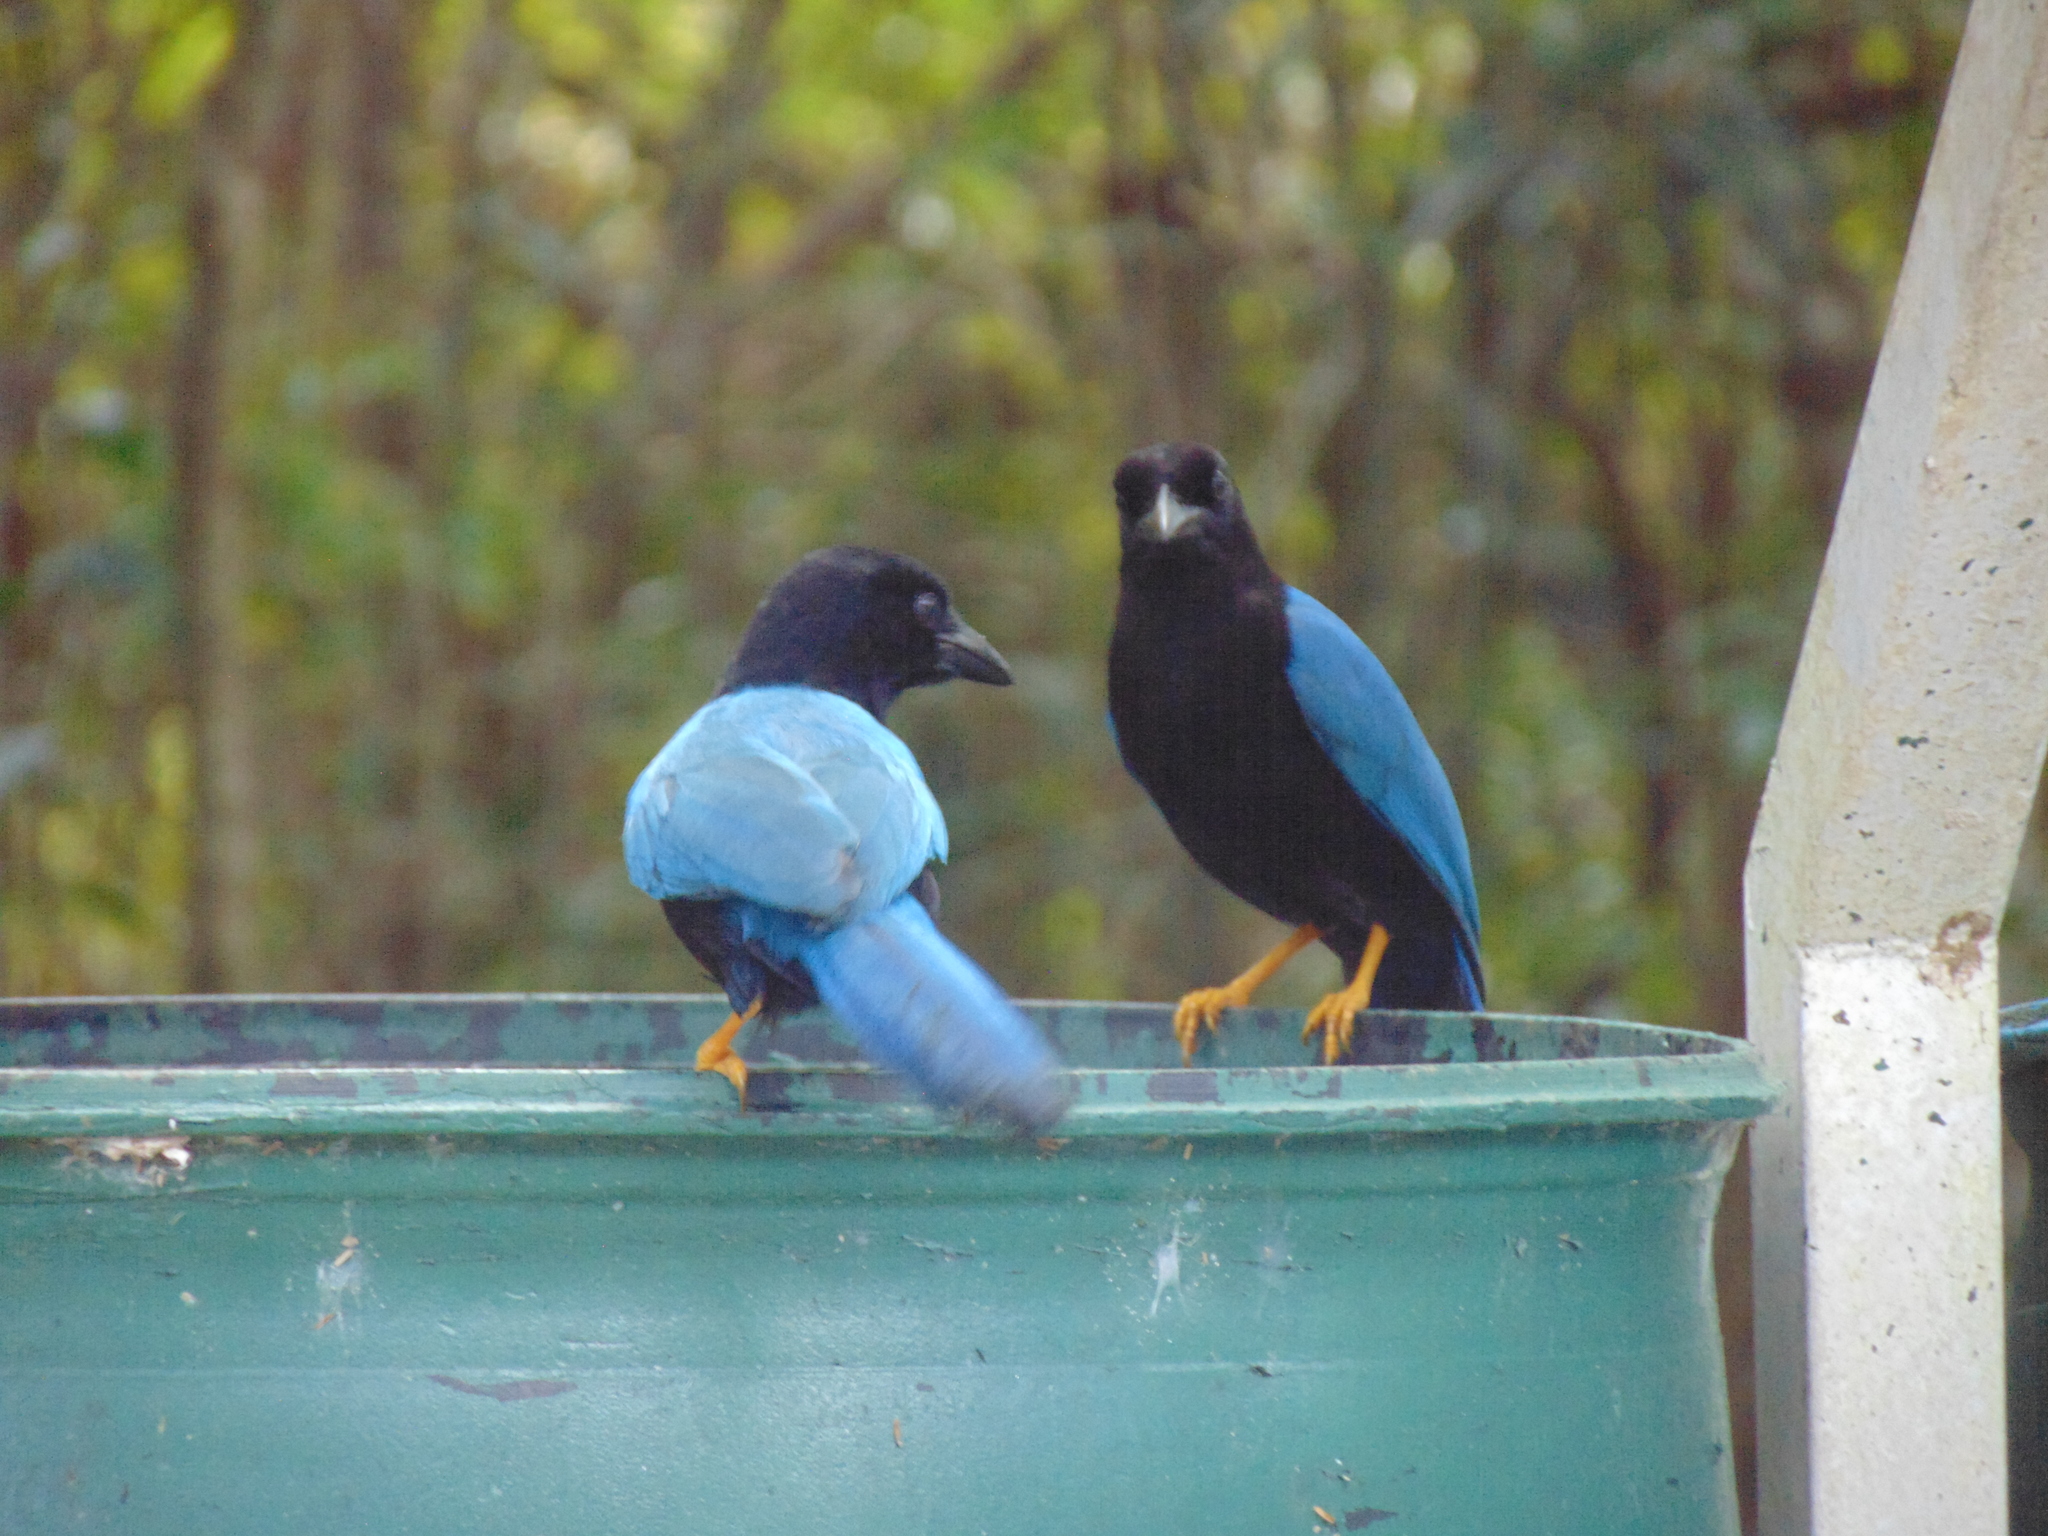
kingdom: Animalia
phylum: Chordata
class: Aves
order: Passeriformes
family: Corvidae
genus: Cyanocorax
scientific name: Cyanocorax yucatanicus
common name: Yucatan jay
